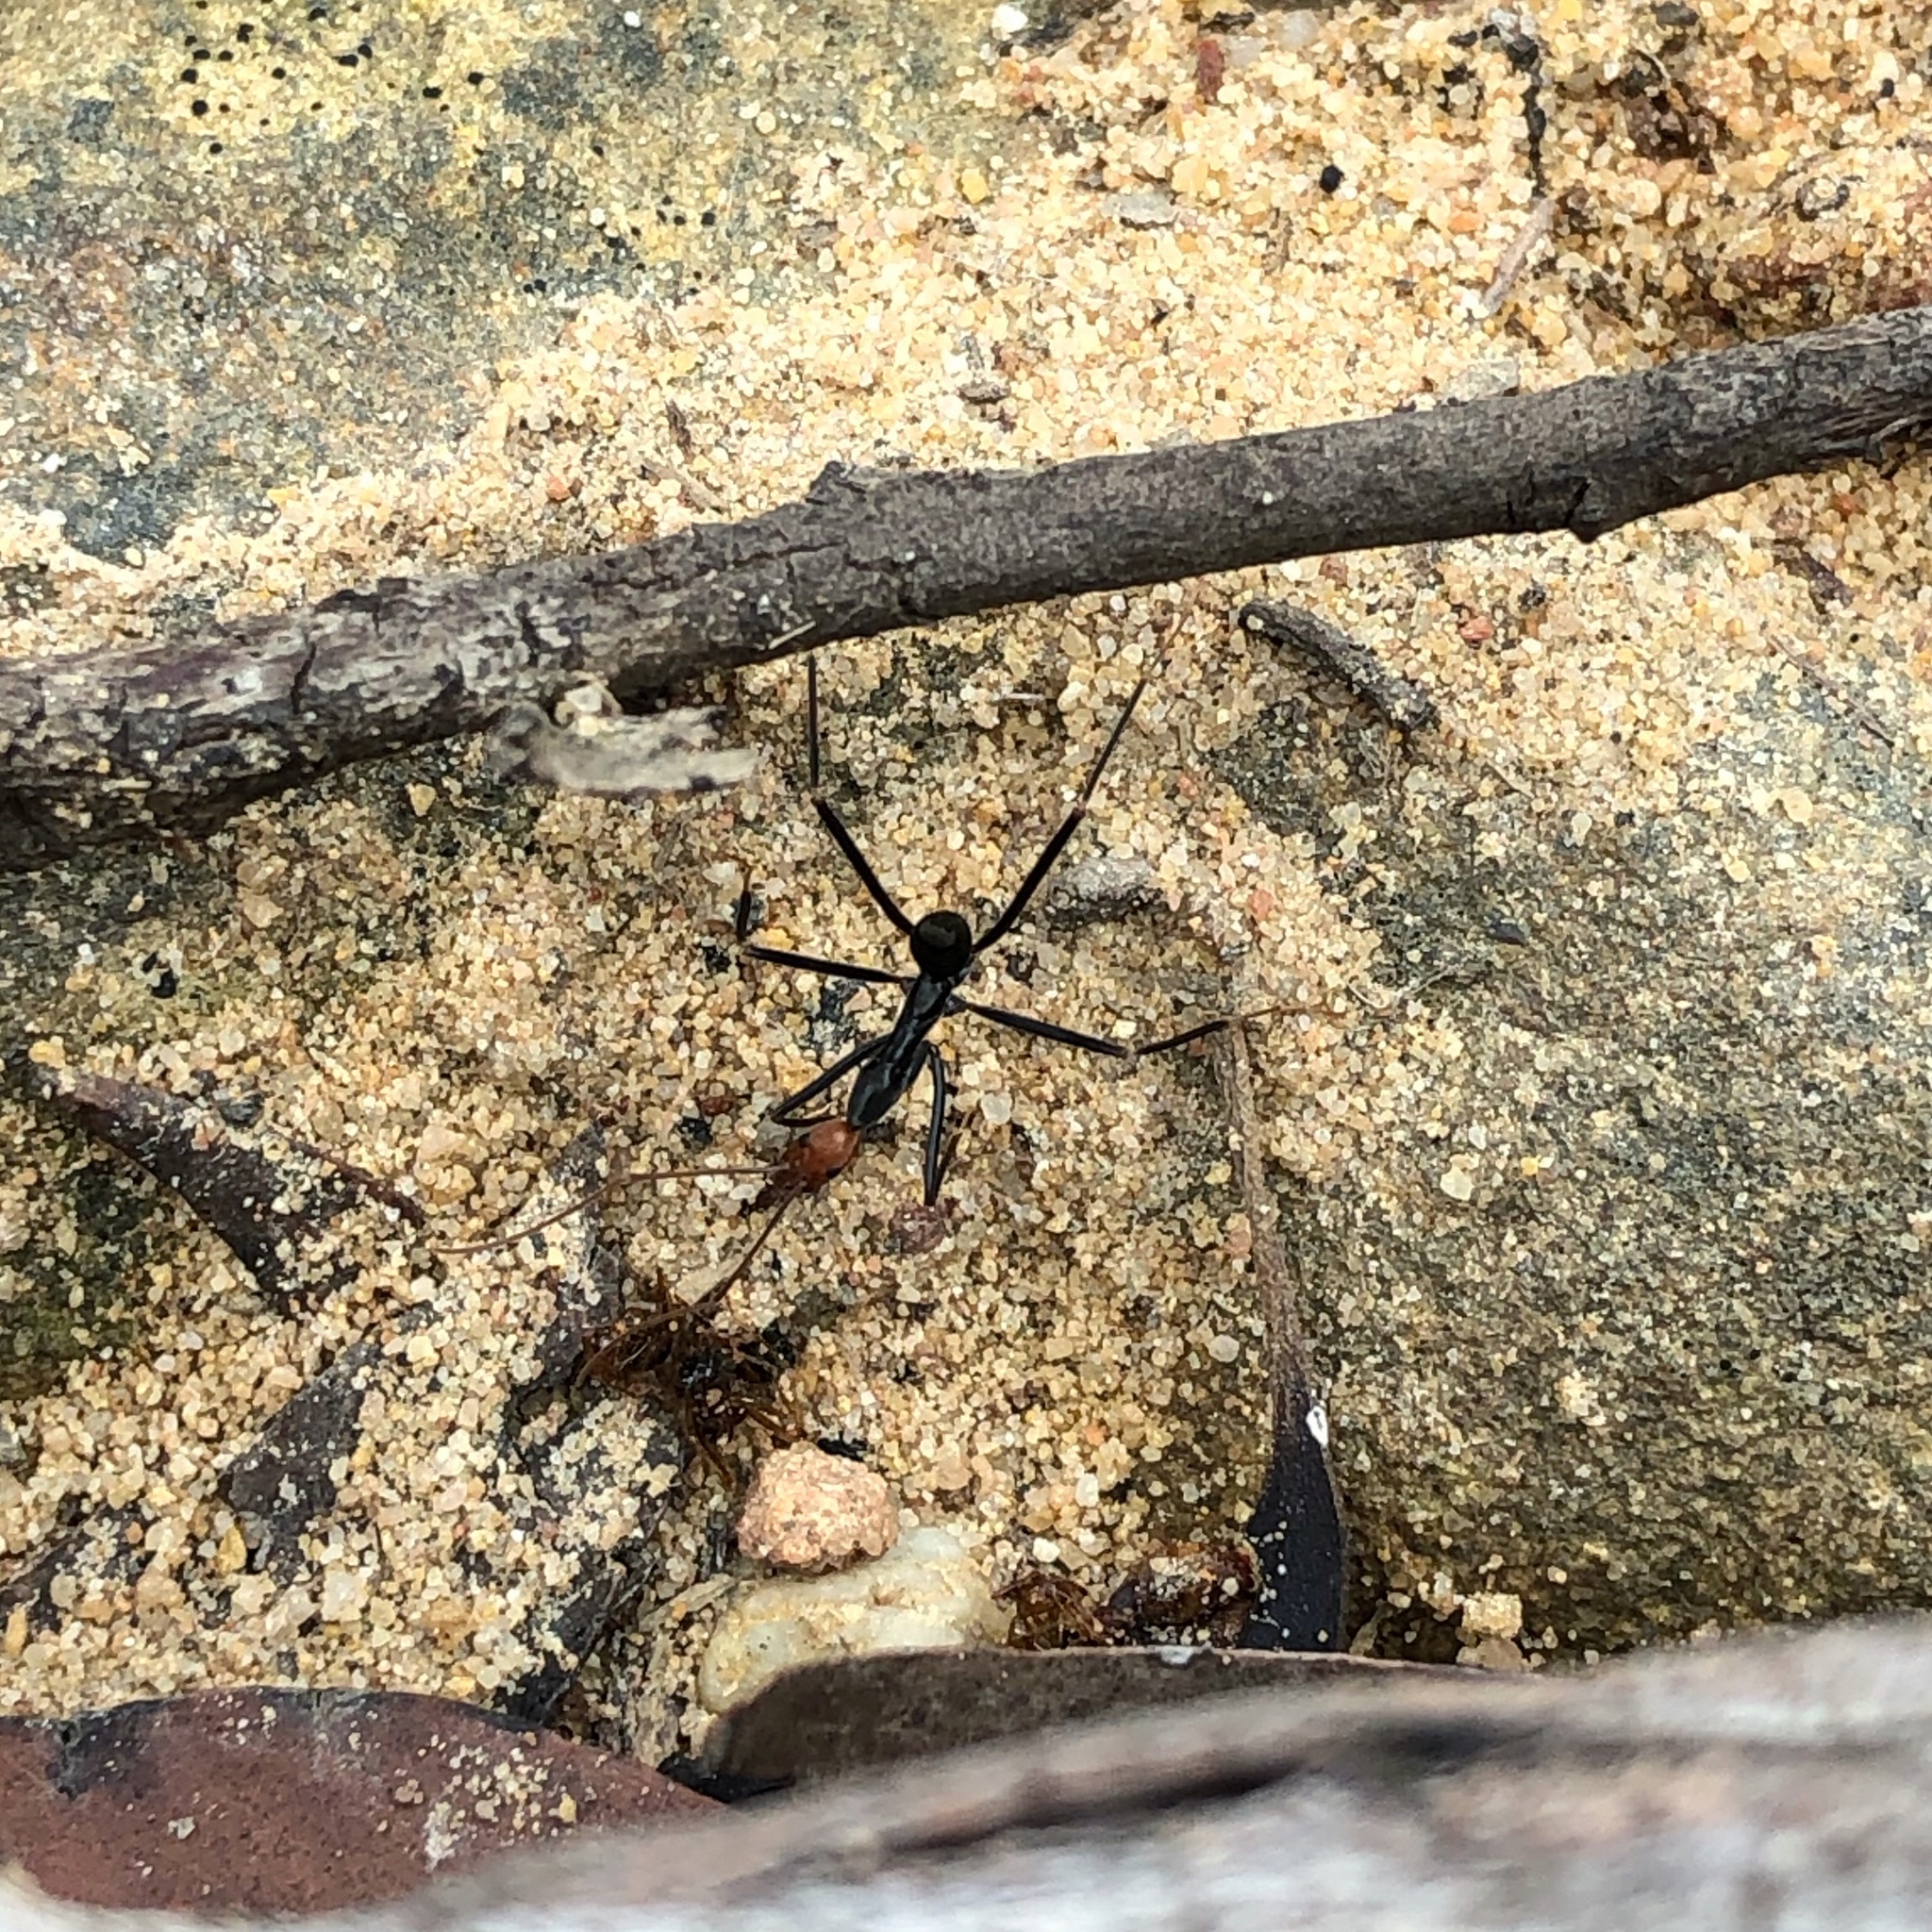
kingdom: Animalia
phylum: Arthropoda
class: Insecta
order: Hymenoptera
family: Formicidae
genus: Leptomyrmex
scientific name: Leptomyrmex erythrocephalus
